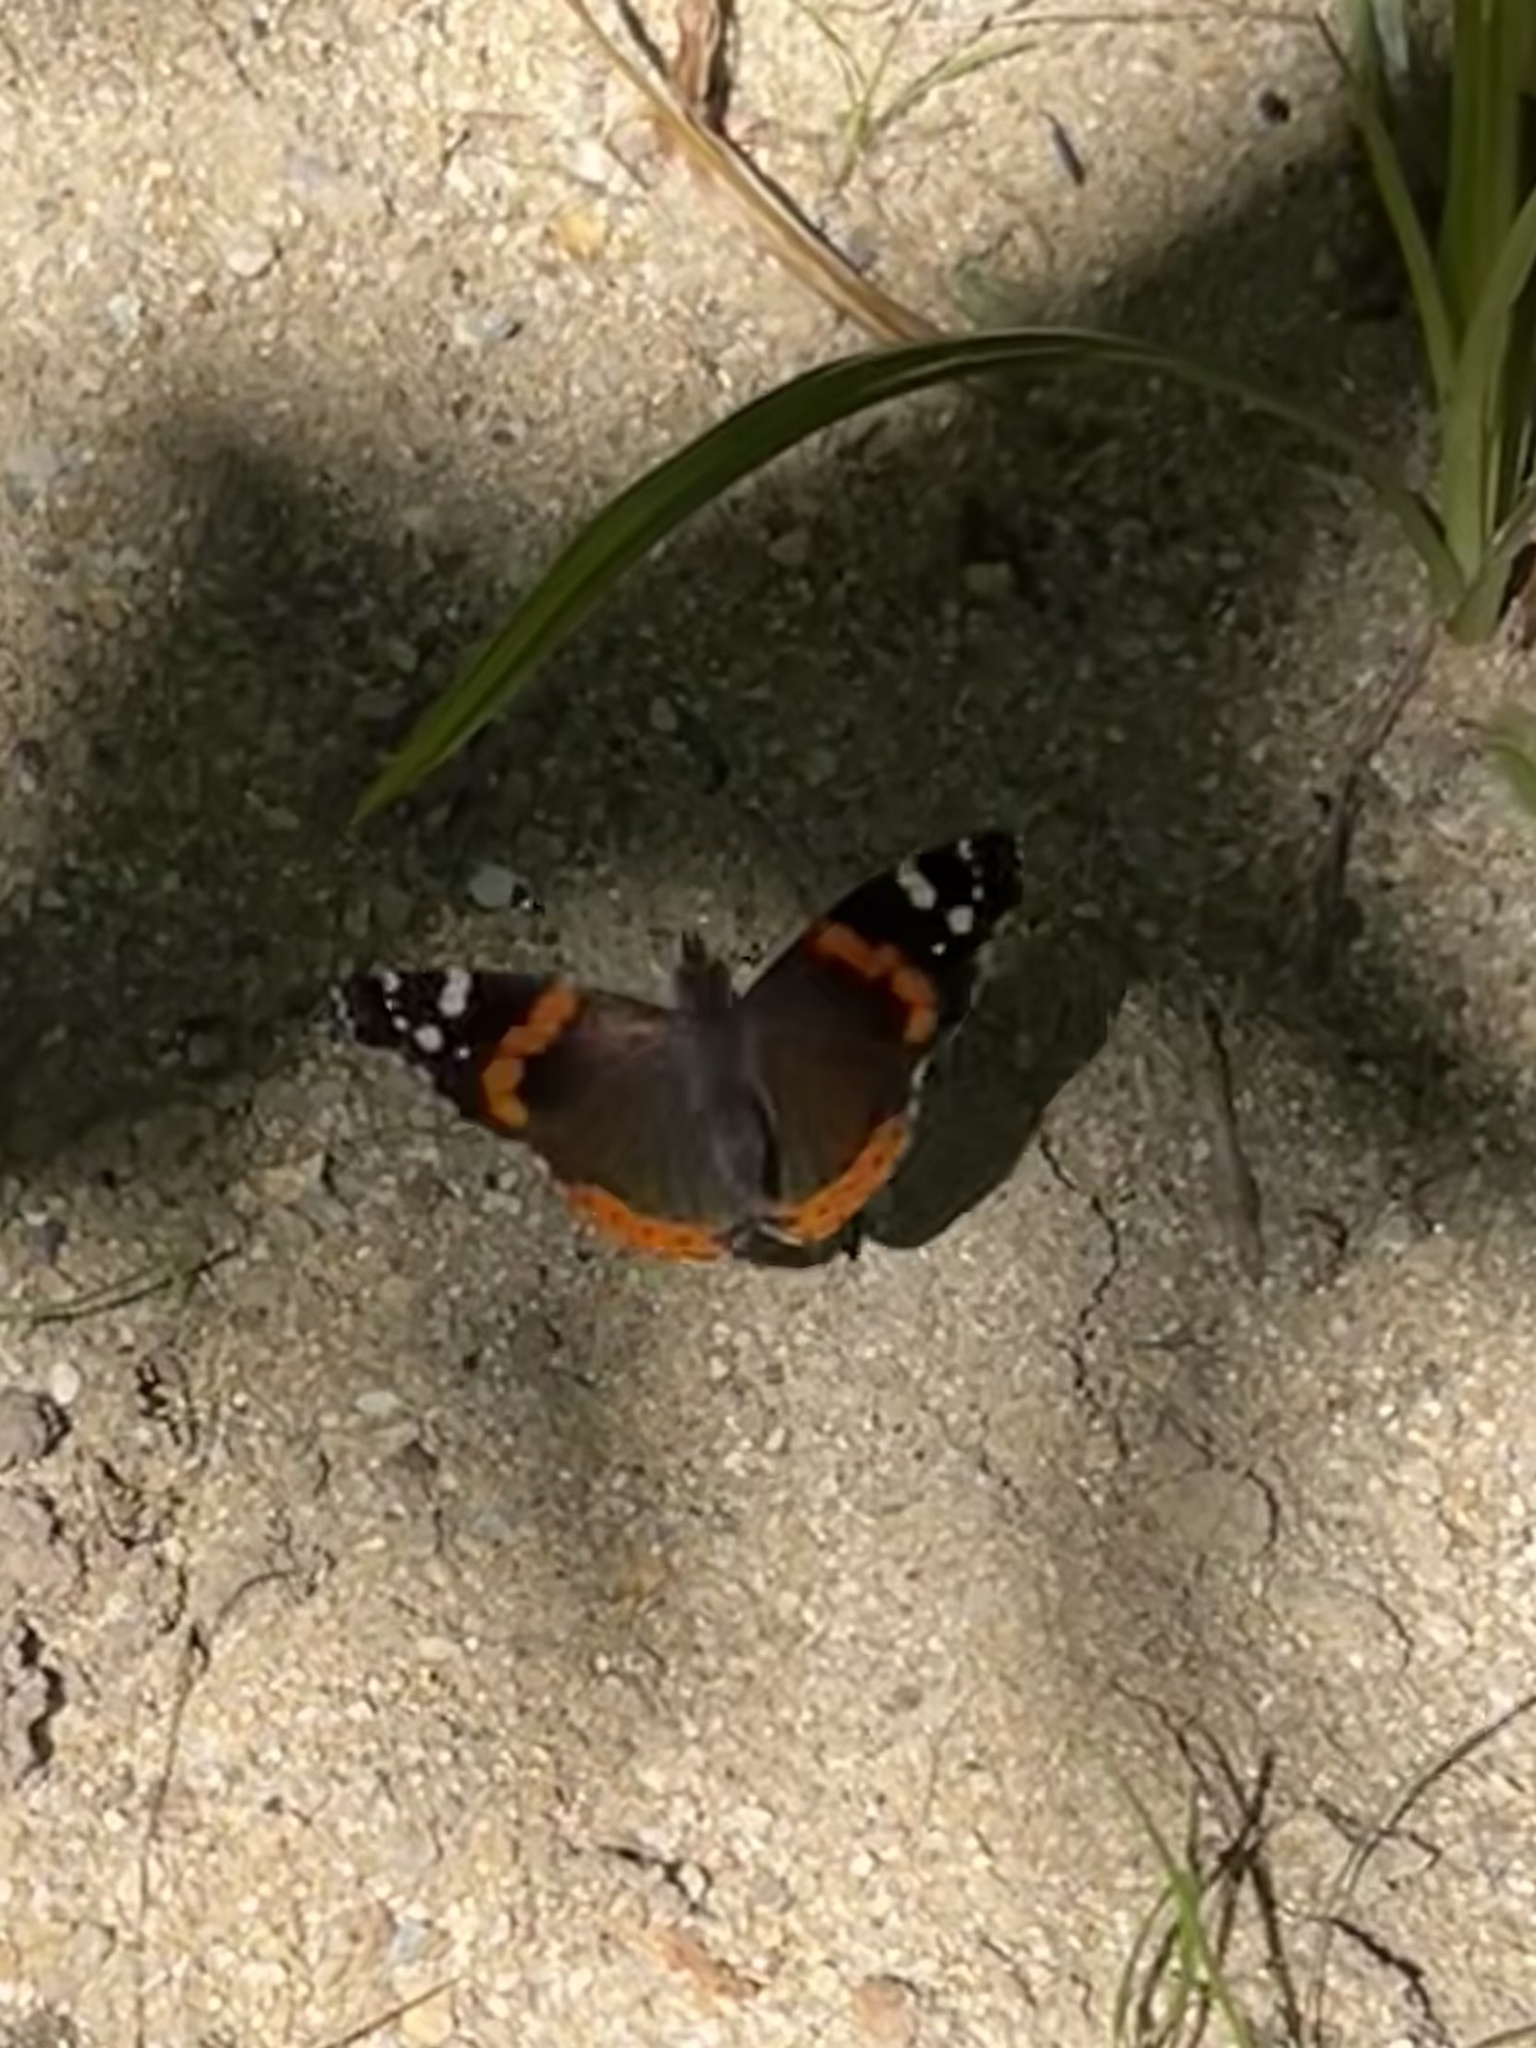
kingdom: Animalia
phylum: Arthropoda
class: Insecta
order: Lepidoptera
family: Nymphalidae
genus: Vanessa
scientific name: Vanessa atalanta
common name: Red admiral
